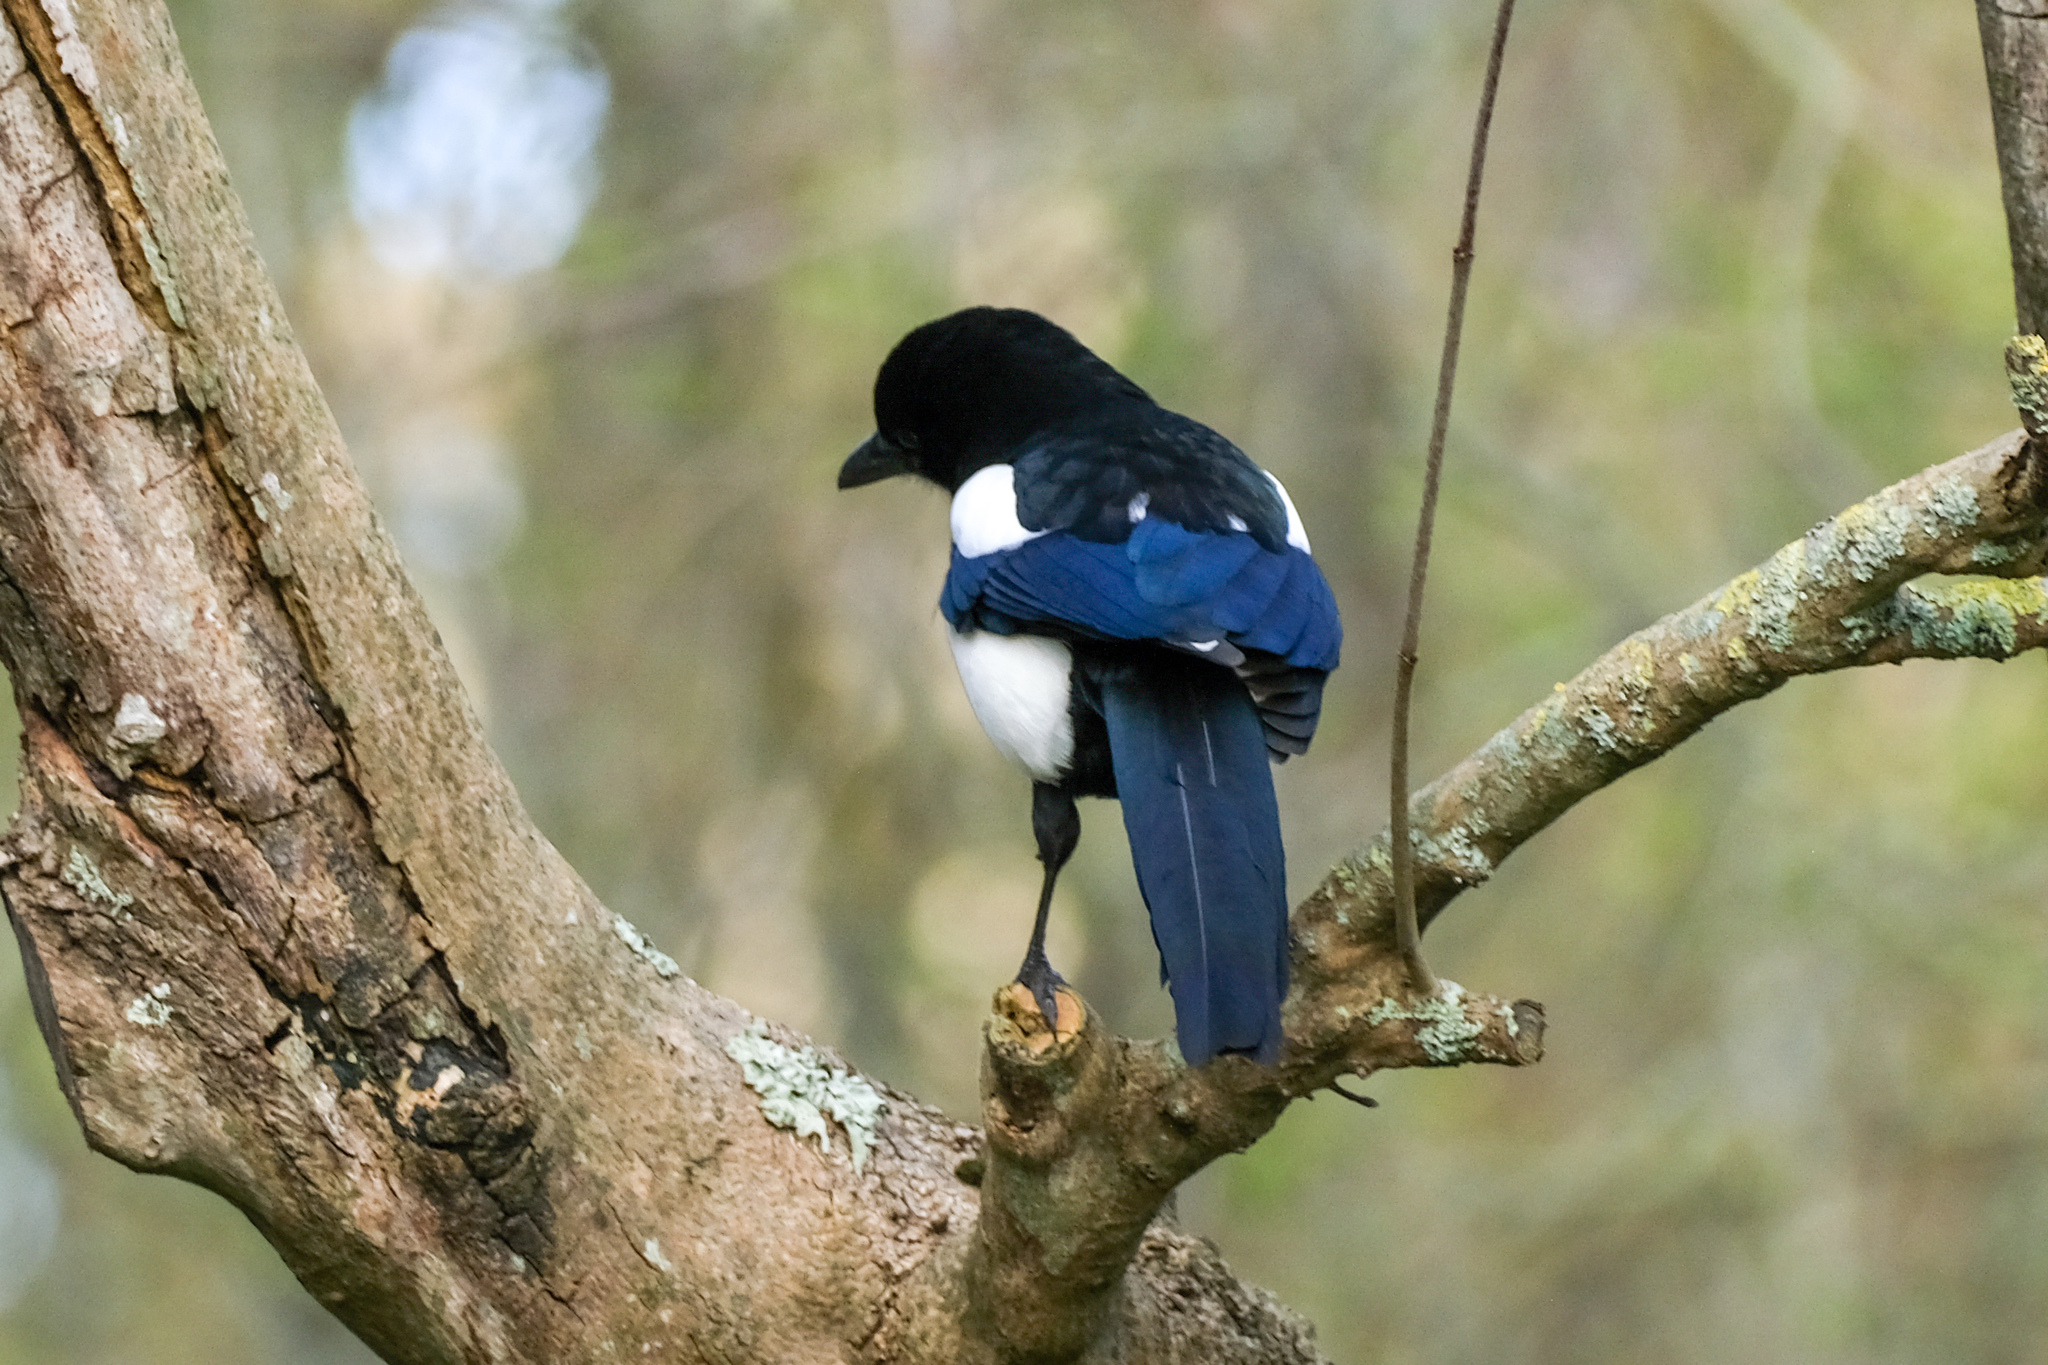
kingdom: Animalia
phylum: Chordata
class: Aves
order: Passeriformes
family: Corvidae
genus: Pica
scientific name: Pica pica
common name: Eurasian magpie
